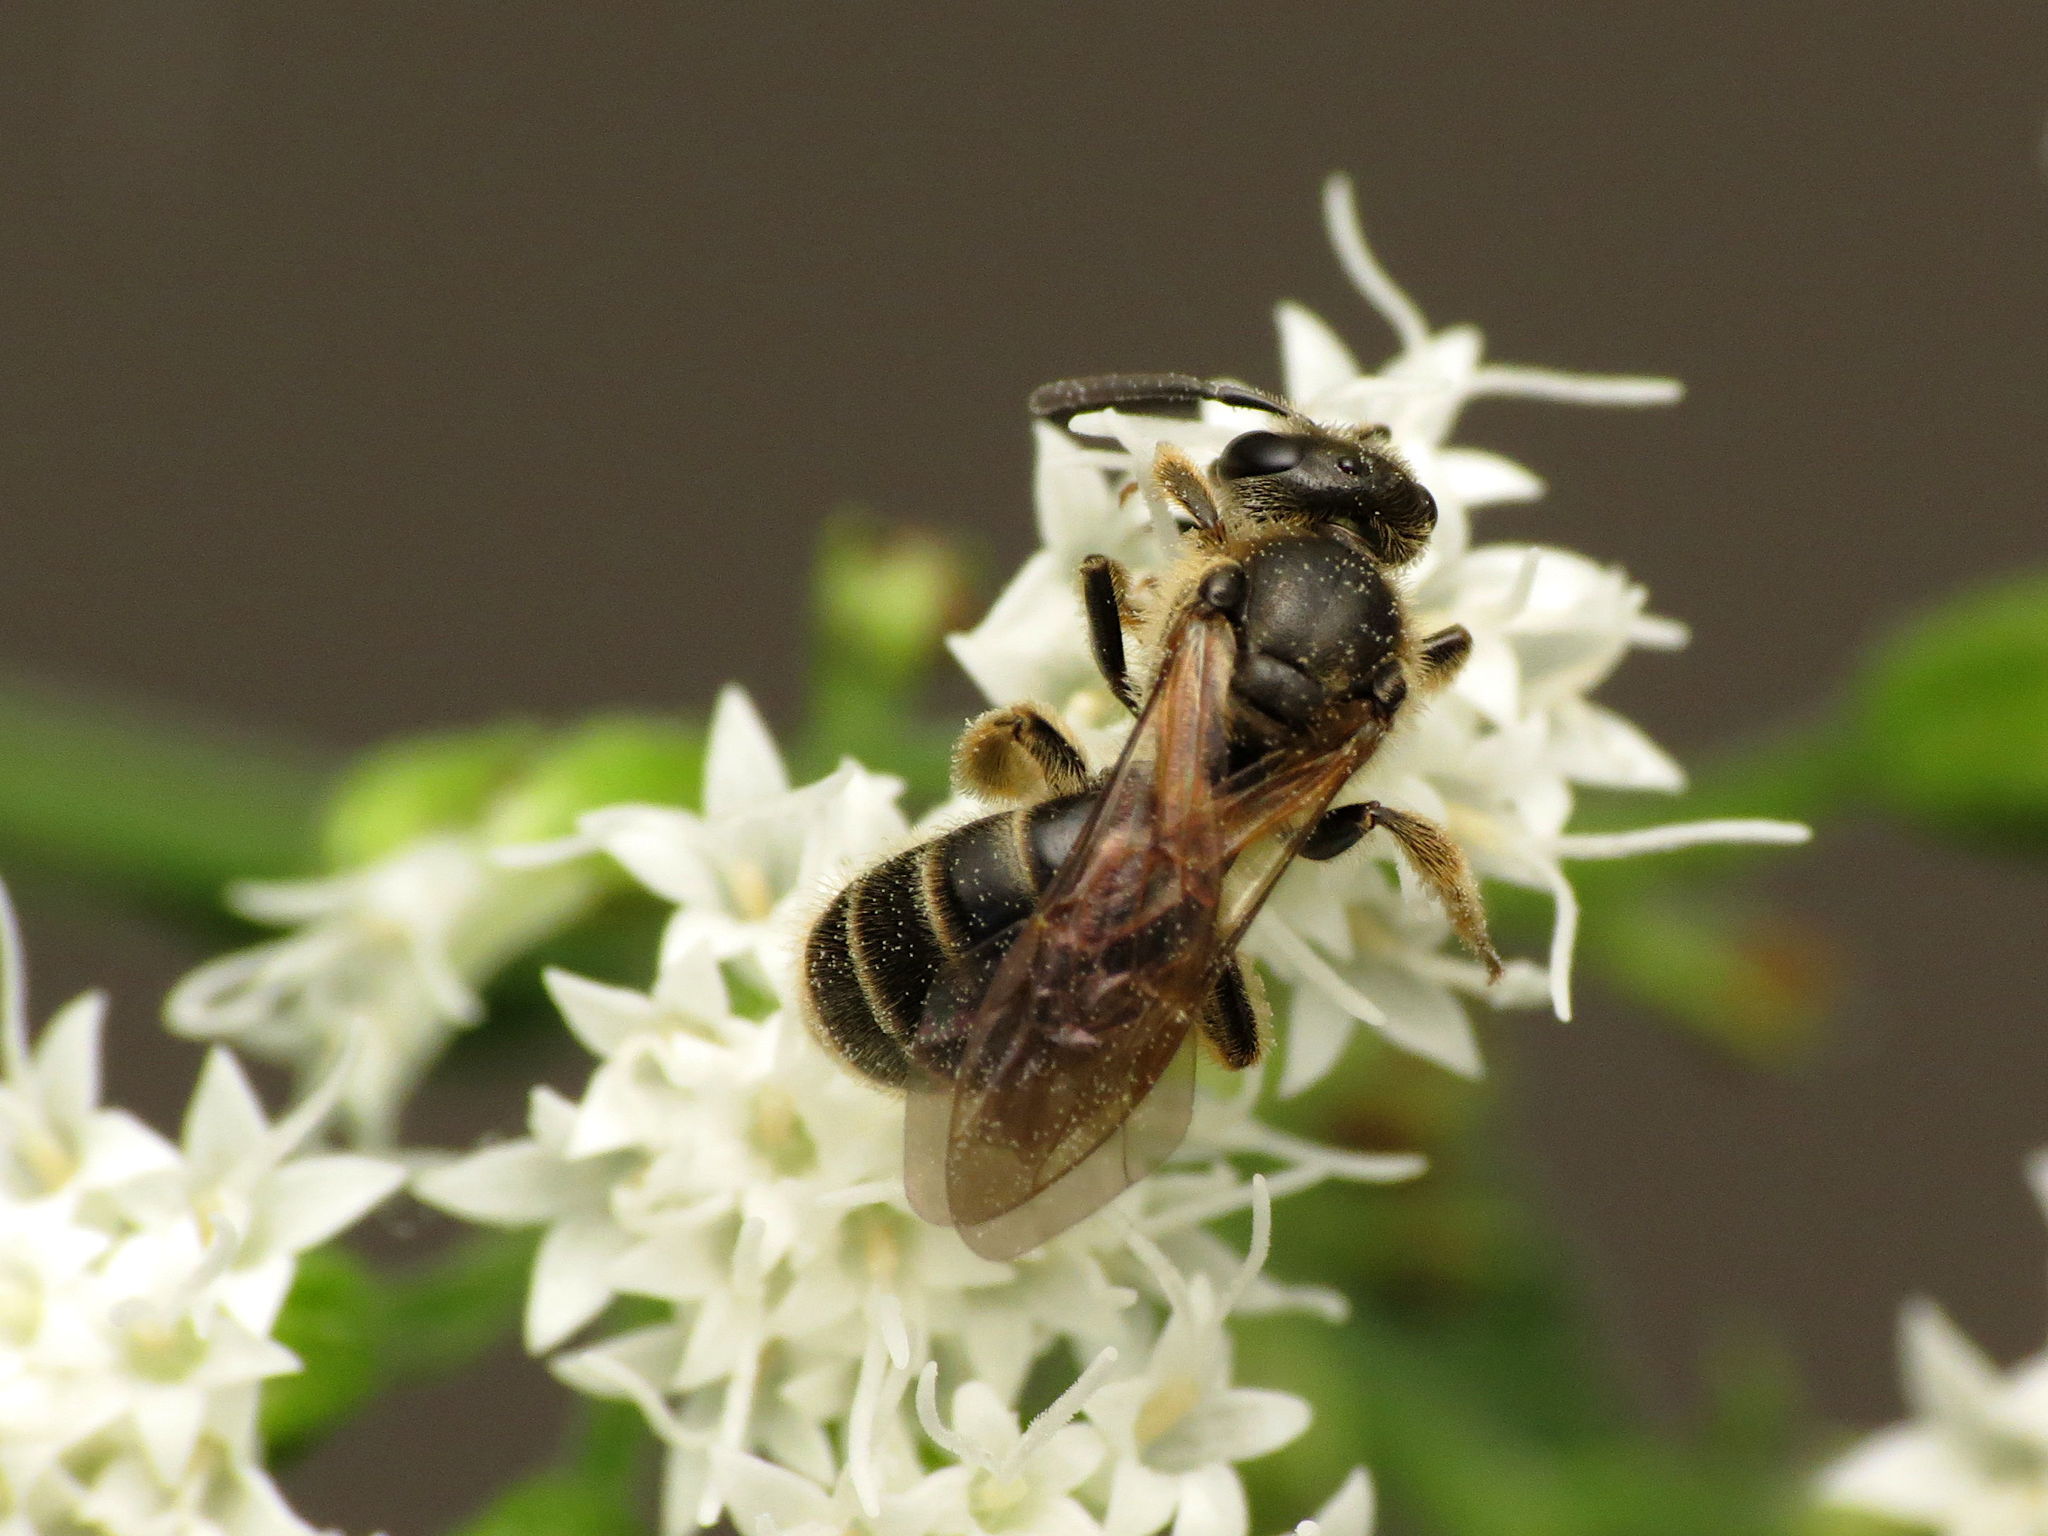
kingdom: Animalia
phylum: Arthropoda
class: Insecta
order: Hymenoptera
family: Halictidae
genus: Lasioglossum
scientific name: Lasioglossum quebecense
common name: Quebec sweat bee
